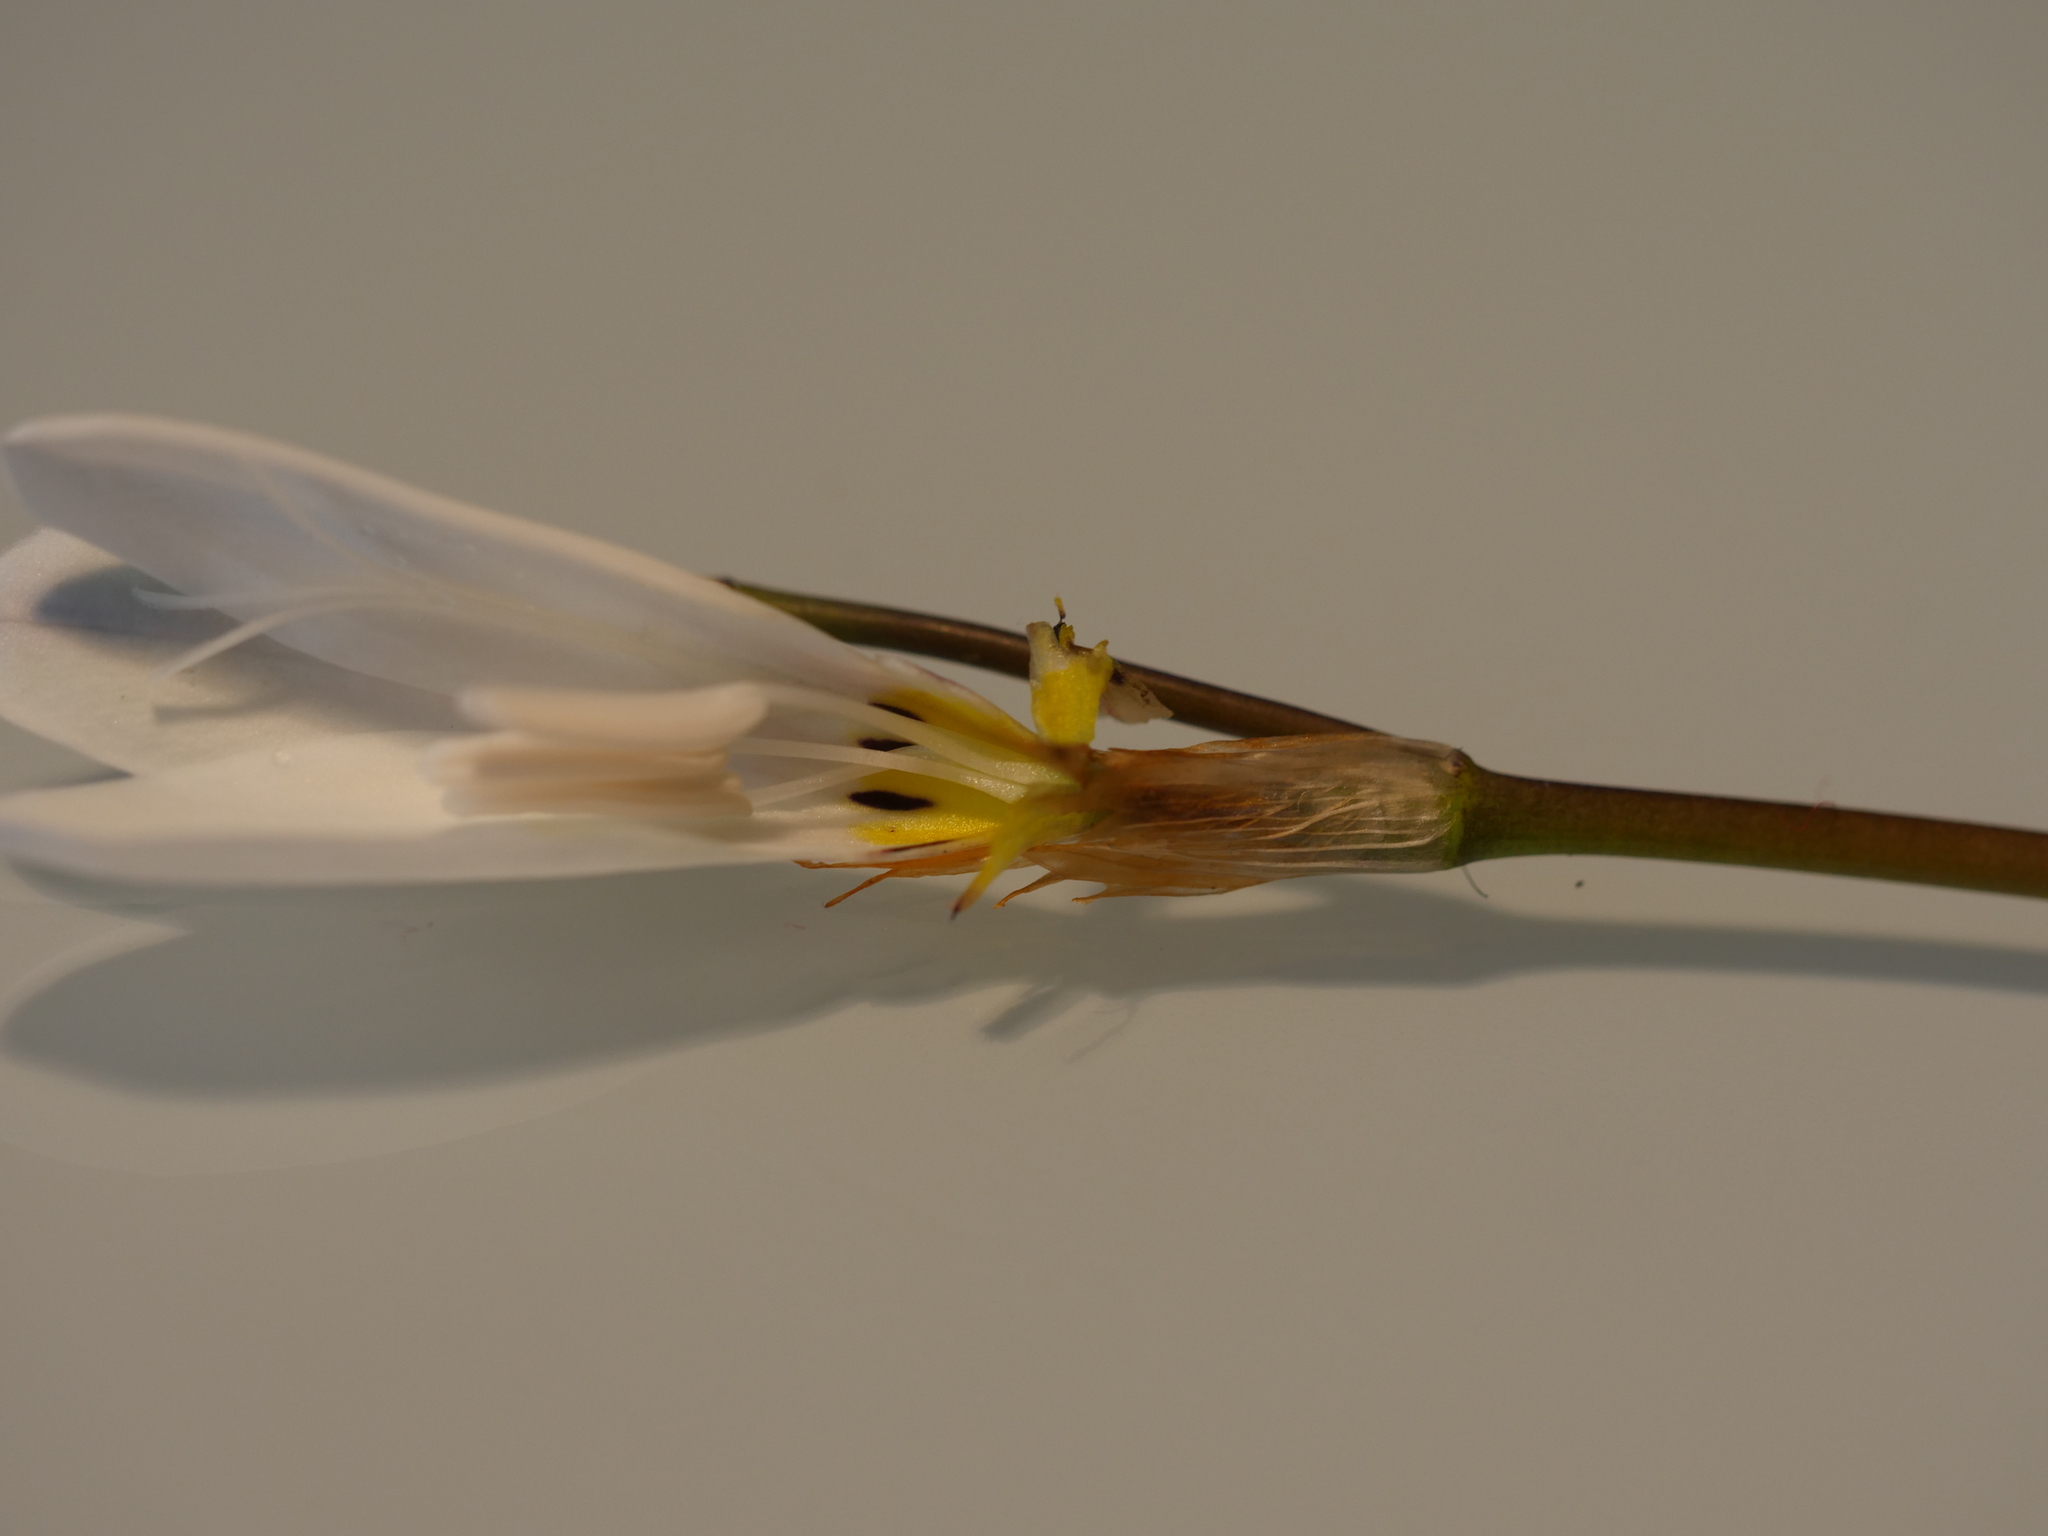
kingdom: Plantae
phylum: Tracheophyta
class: Liliopsida
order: Asparagales
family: Iridaceae
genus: Sparaxis
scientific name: Sparaxis bulbifera
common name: Harlequin-flower
